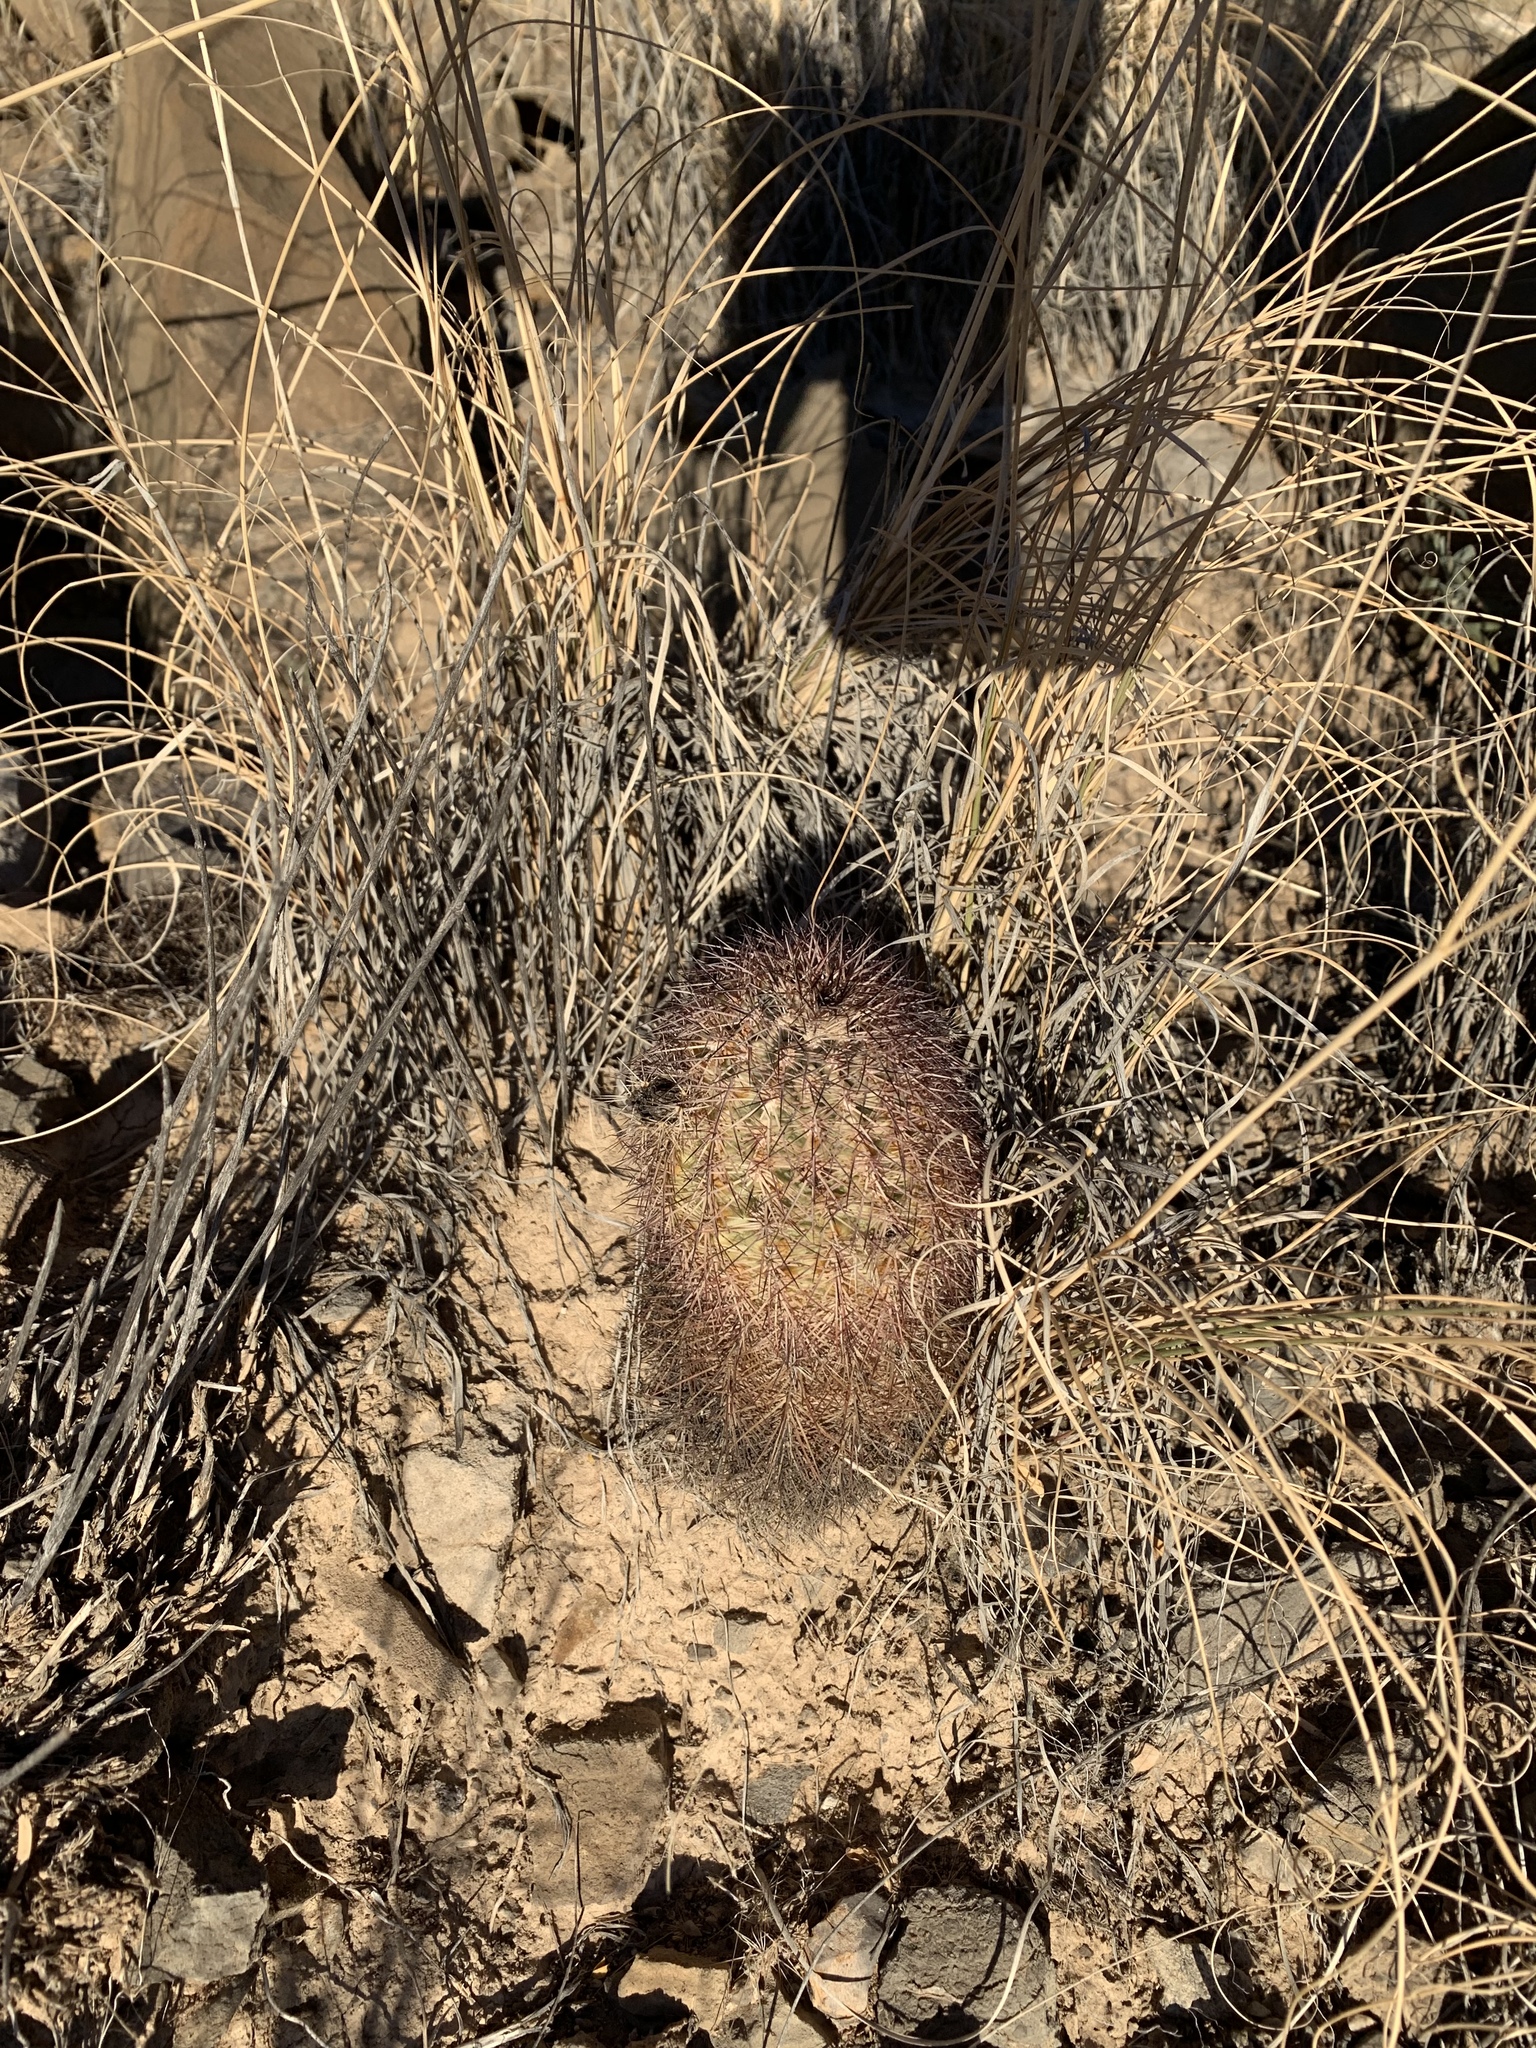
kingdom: Plantae
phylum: Tracheophyta
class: Magnoliopsida
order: Caryophyllales
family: Cactaceae
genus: Echinocereus
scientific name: Echinocereus dasyacanthus
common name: Spiny hedgehog cactus
